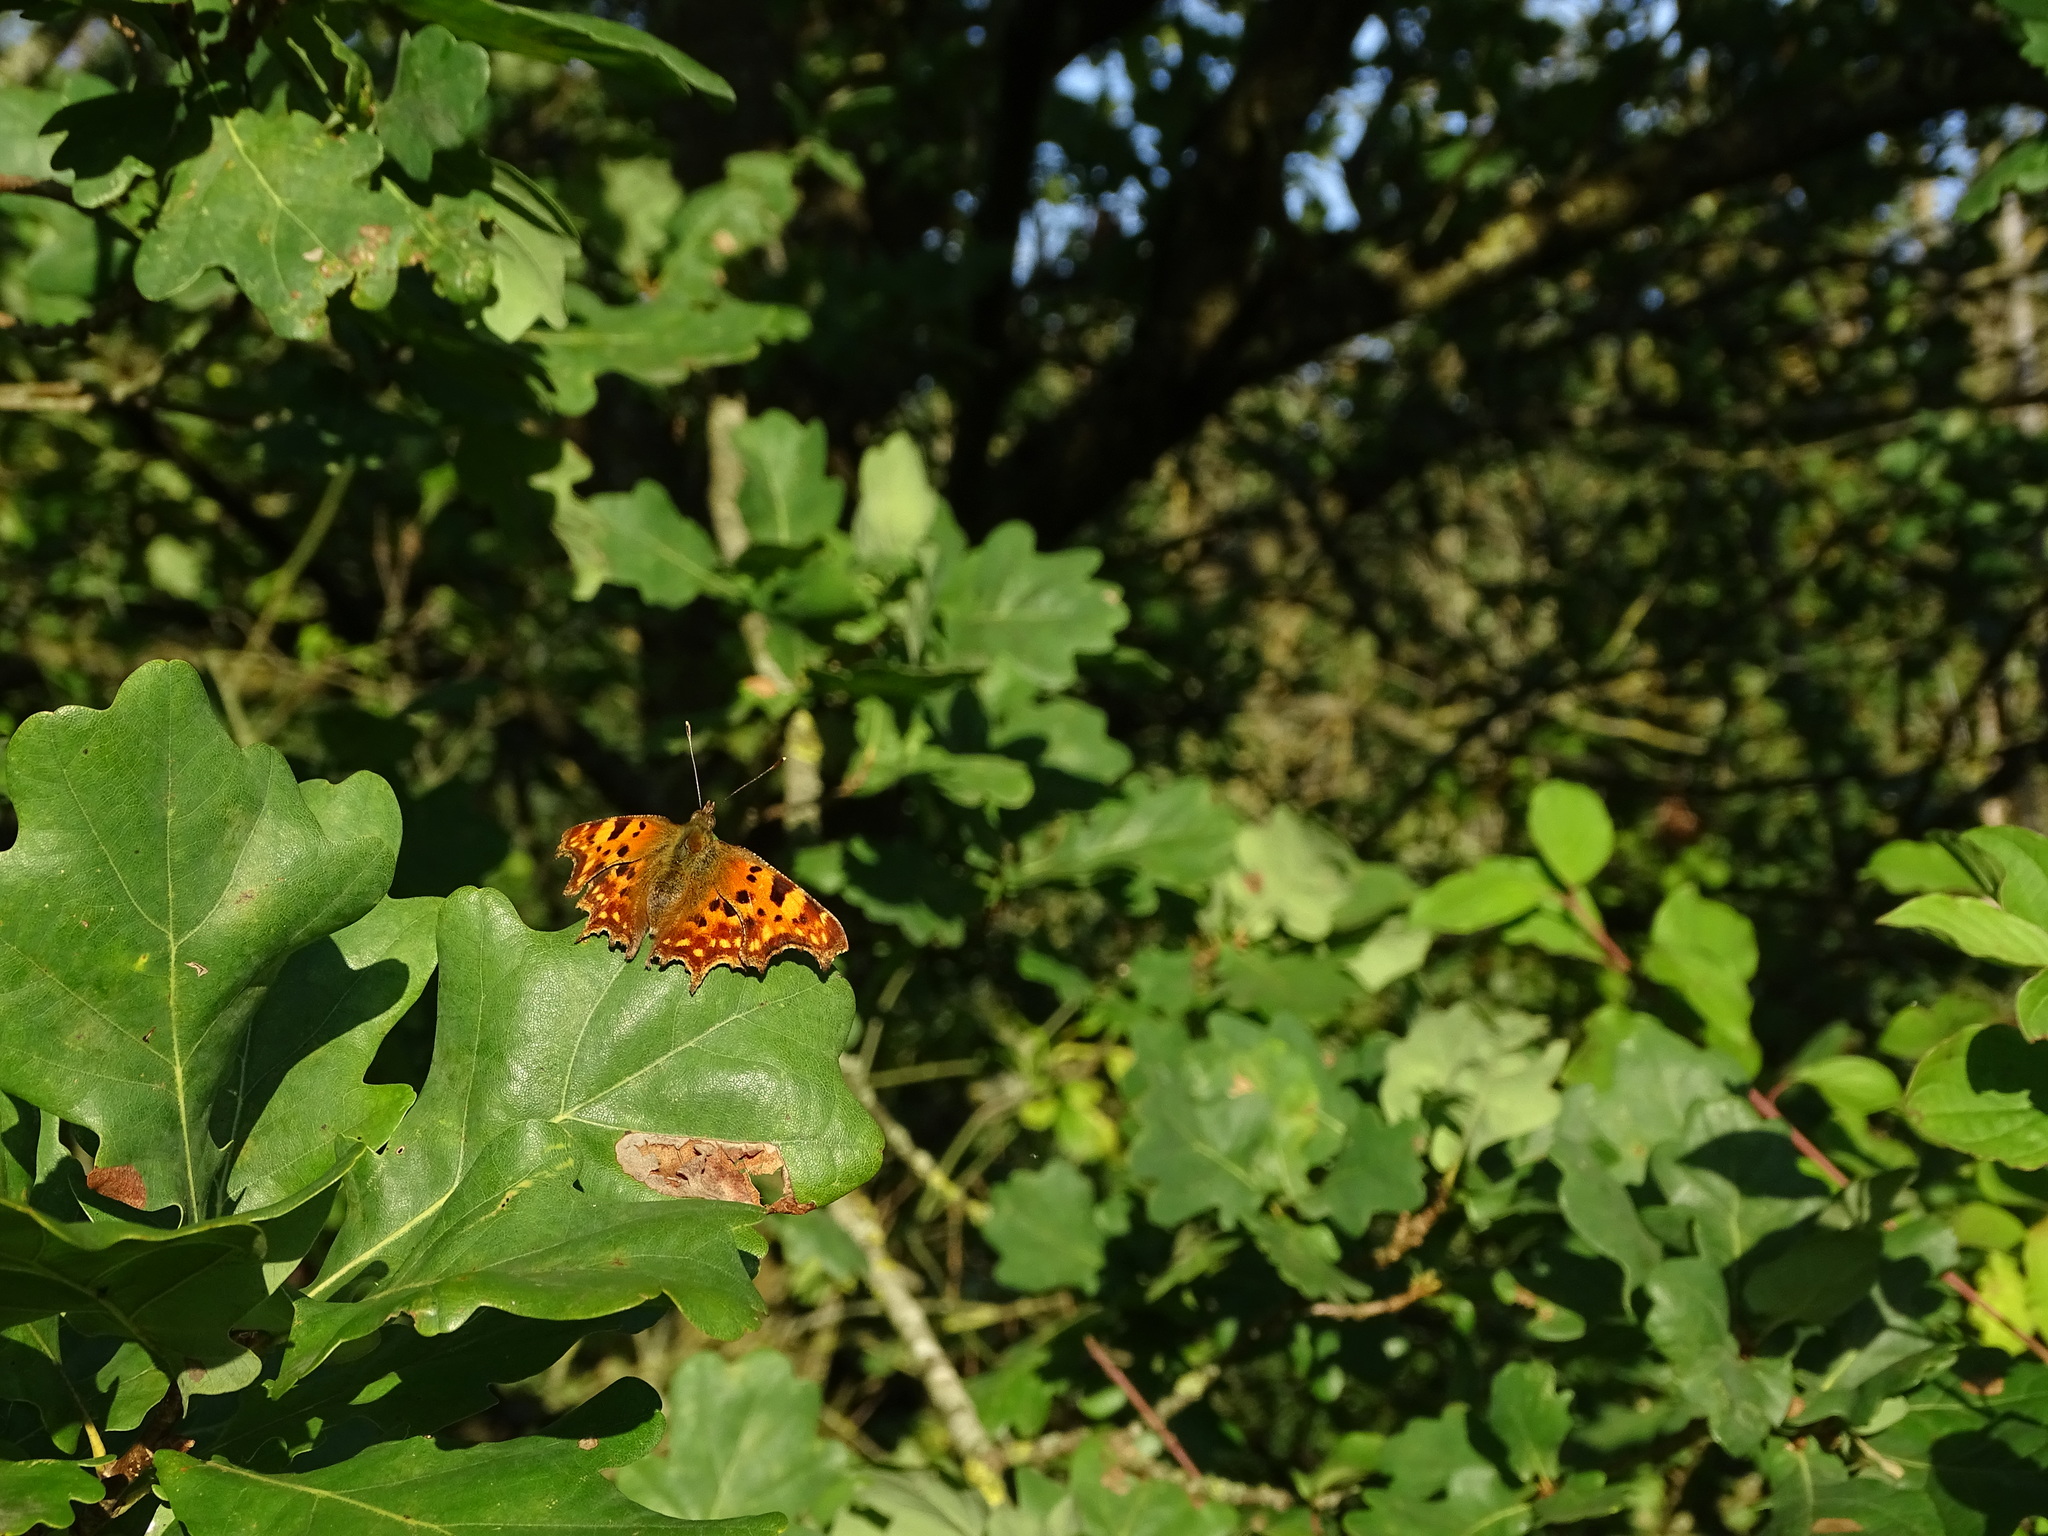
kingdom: Animalia
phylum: Arthropoda
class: Insecta
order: Lepidoptera
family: Nymphalidae
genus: Polygonia
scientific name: Polygonia c-album
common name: Comma
